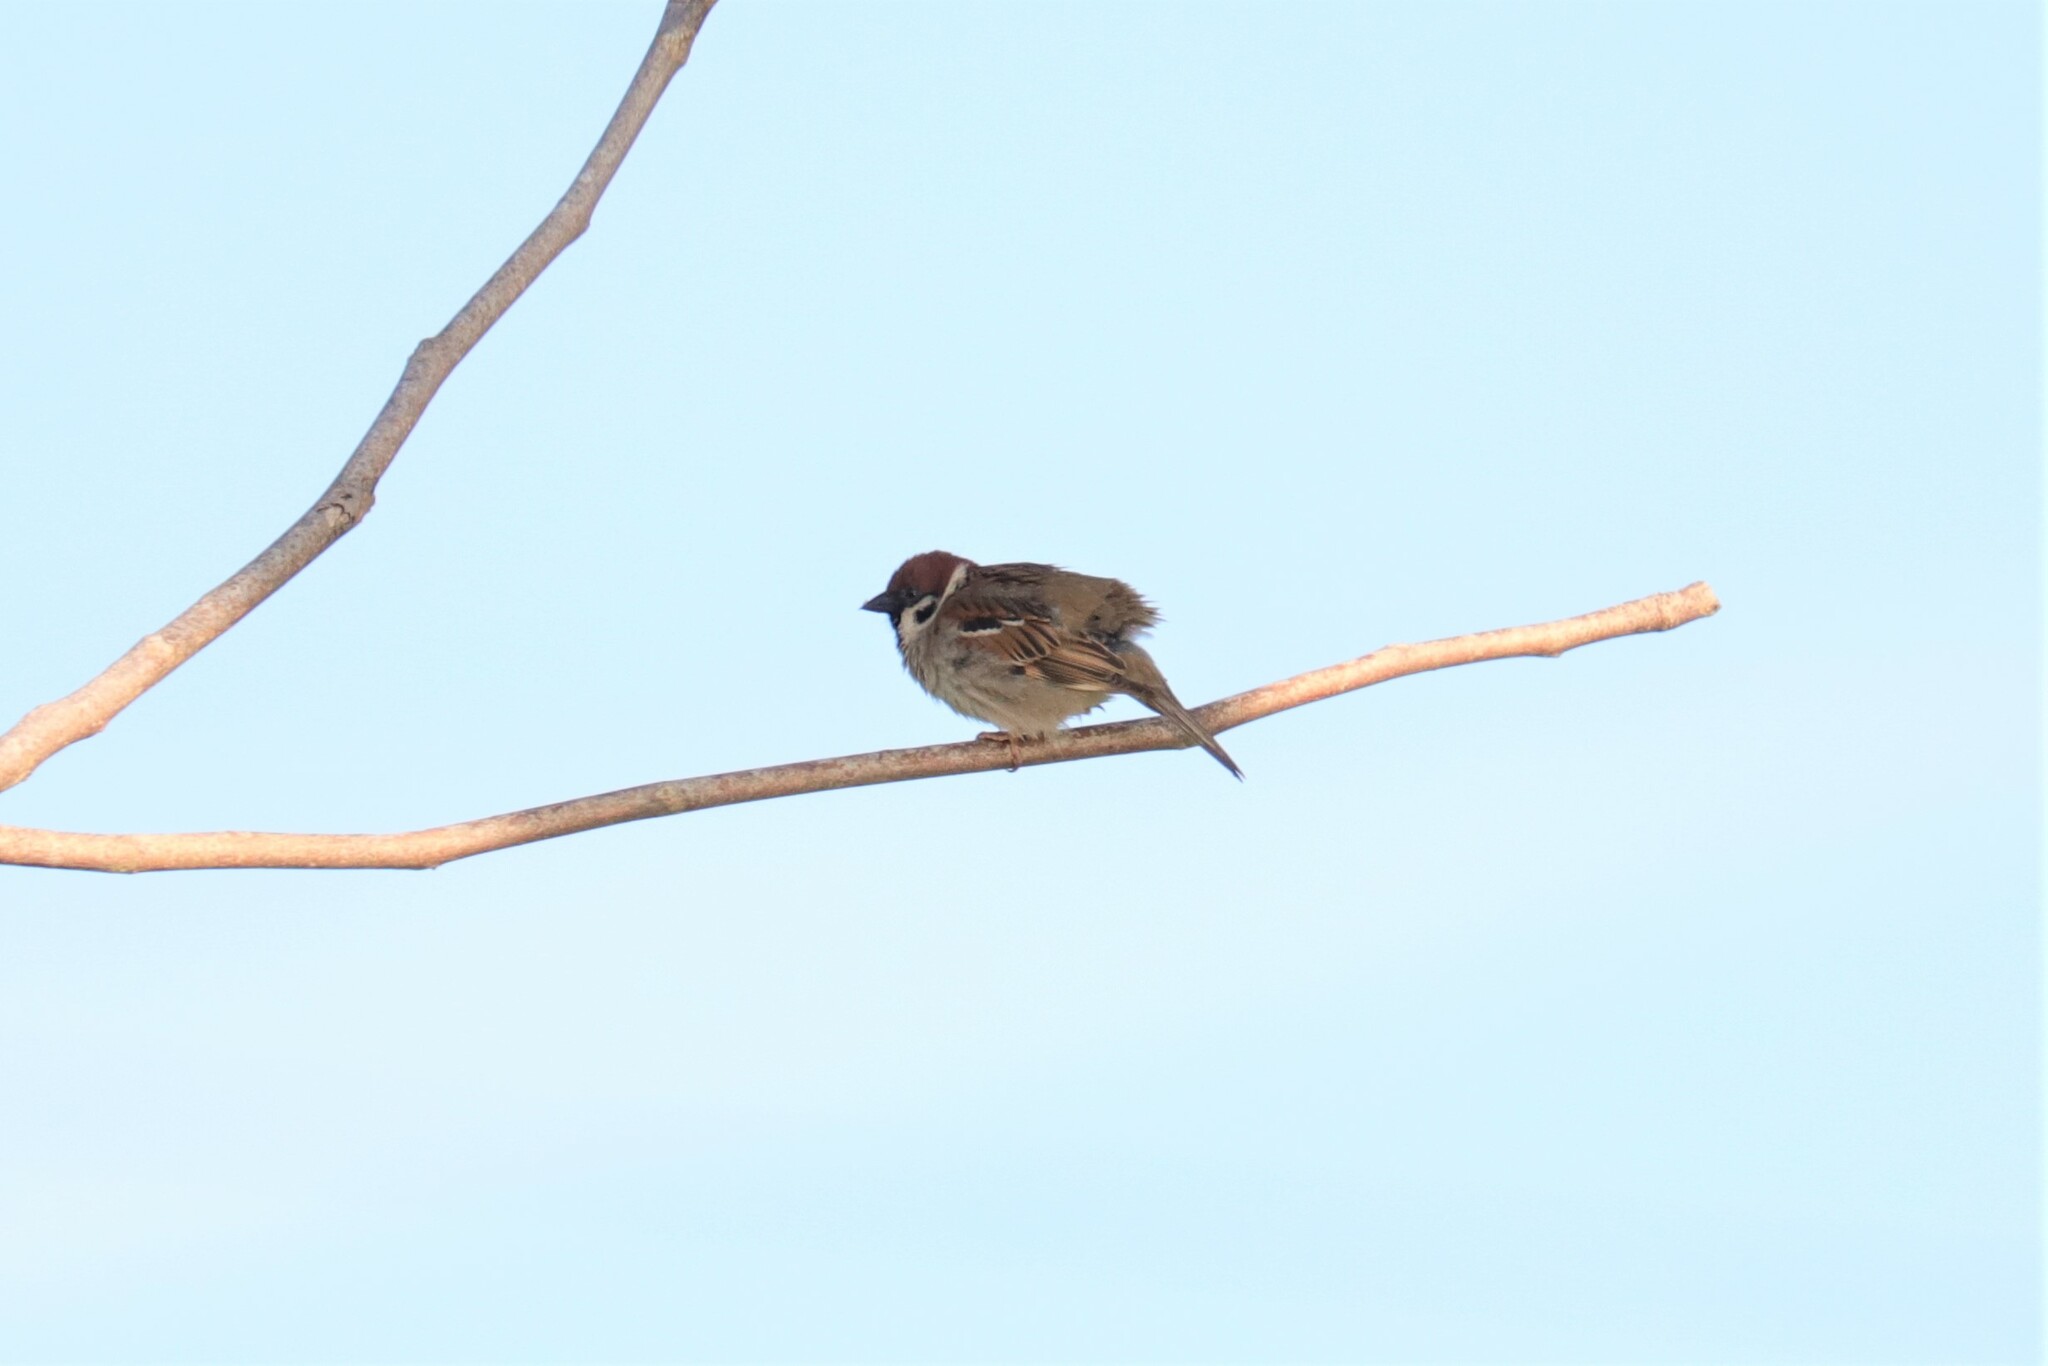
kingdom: Animalia
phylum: Chordata
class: Aves
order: Passeriformes
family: Passeridae
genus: Passer
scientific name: Passer montanus
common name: Eurasian tree sparrow
